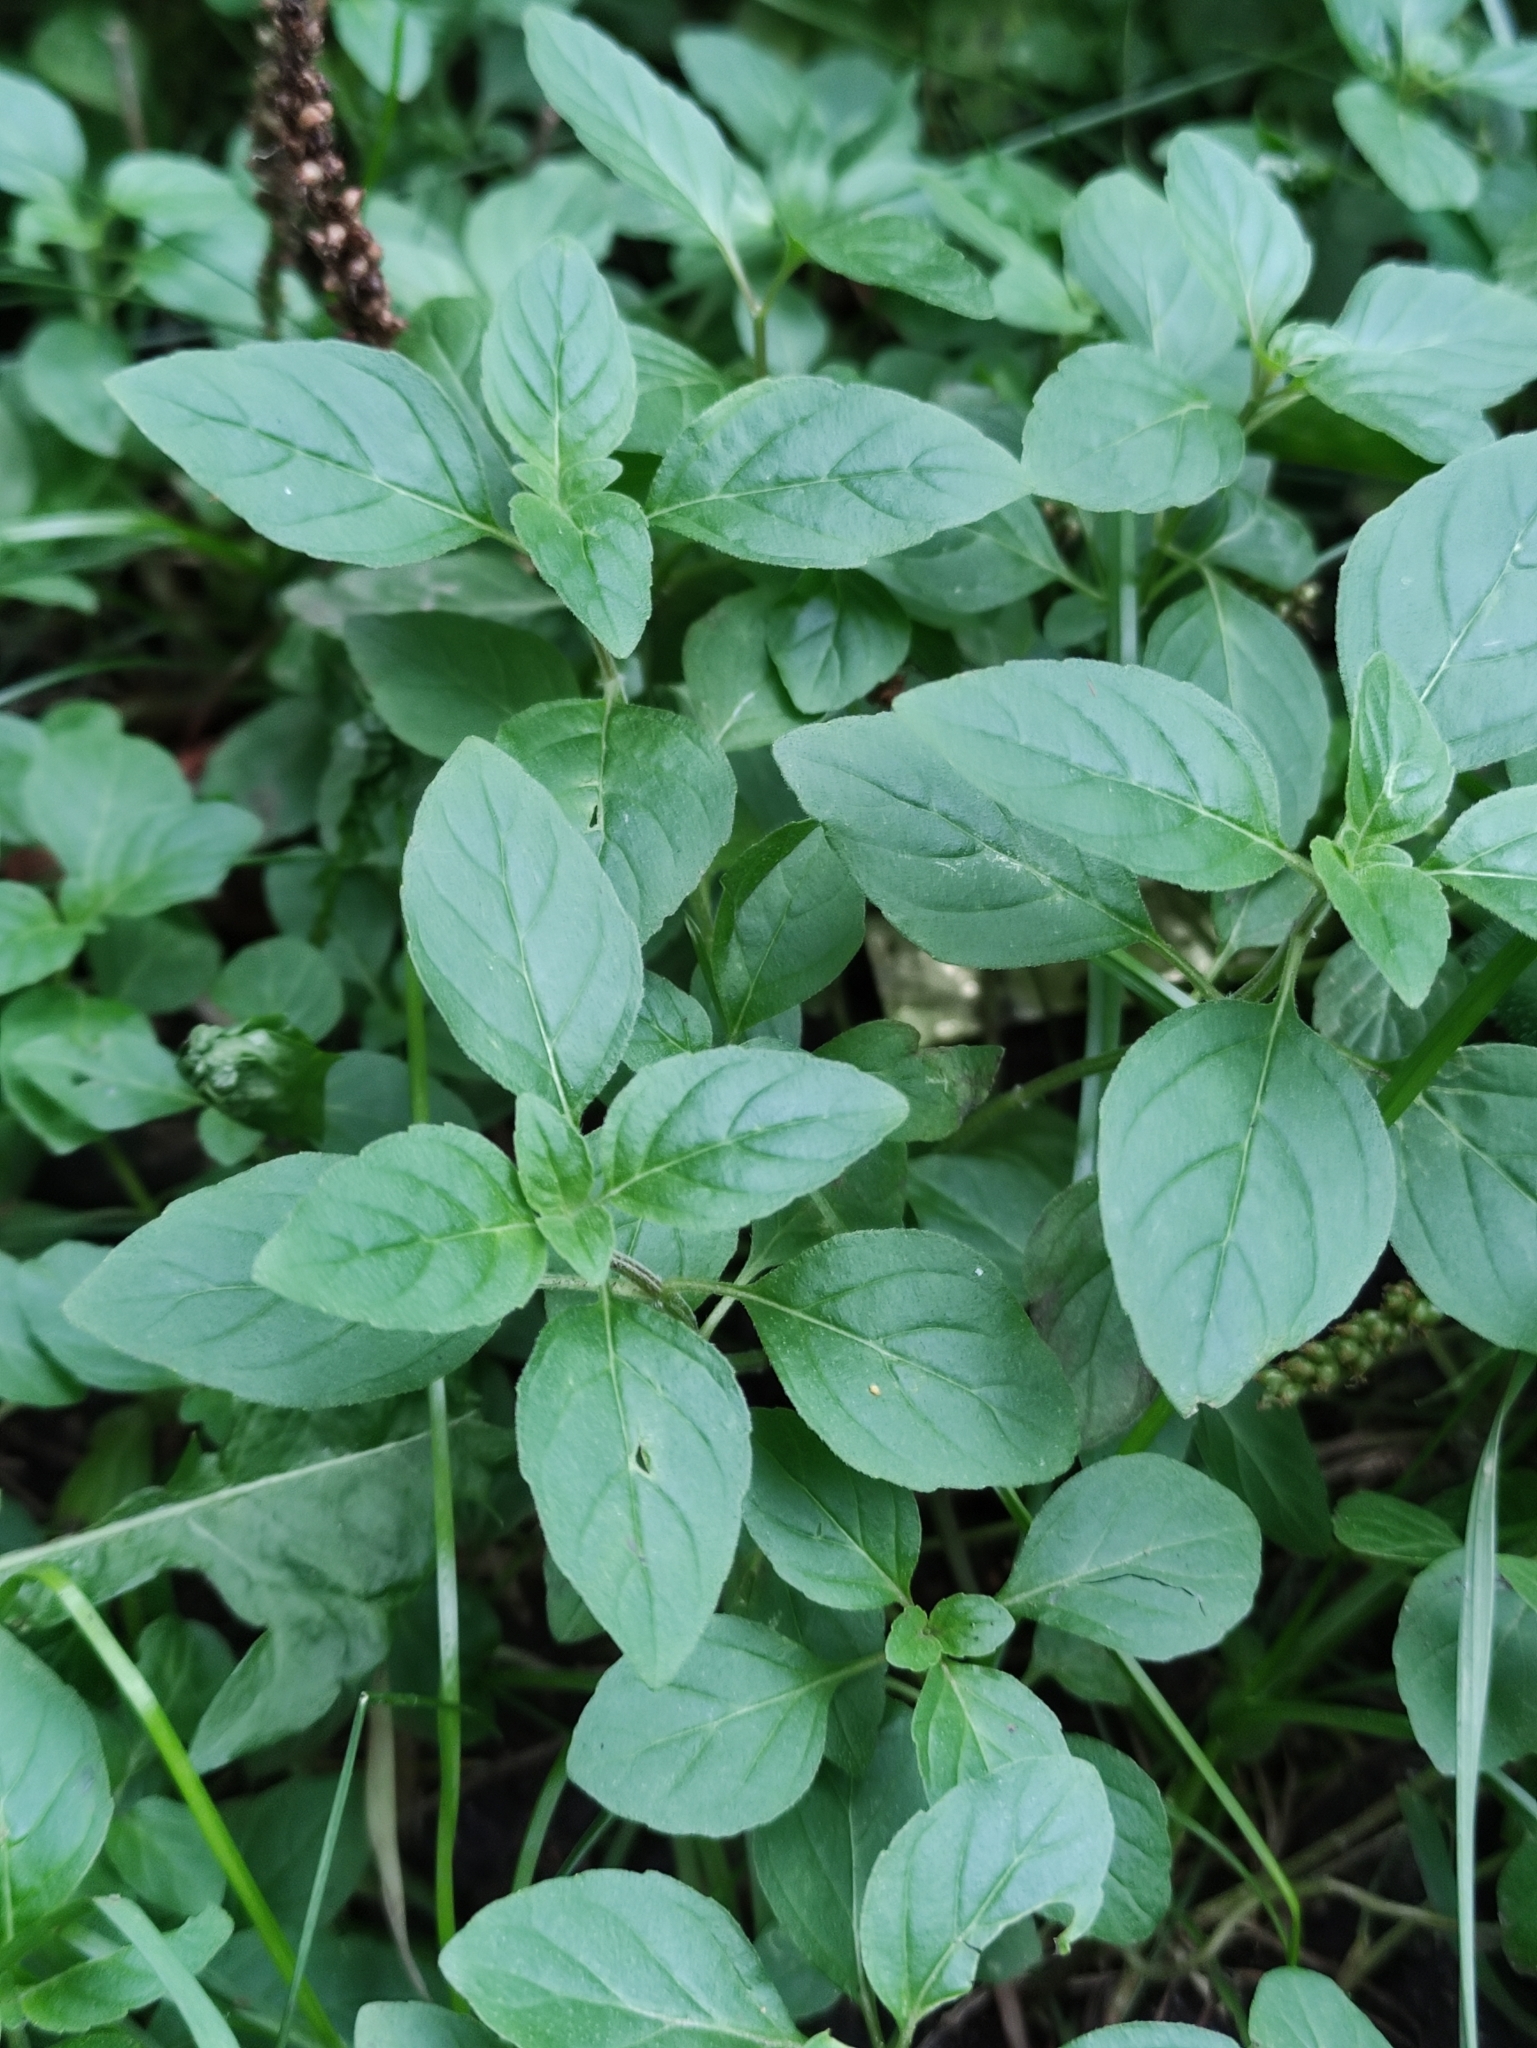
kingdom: Plantae
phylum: Tracheophyta
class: Magnoliopsida
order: Lamiales
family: Lamiaceae
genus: Mentha
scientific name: Mentha arvensis
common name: Corn mint
